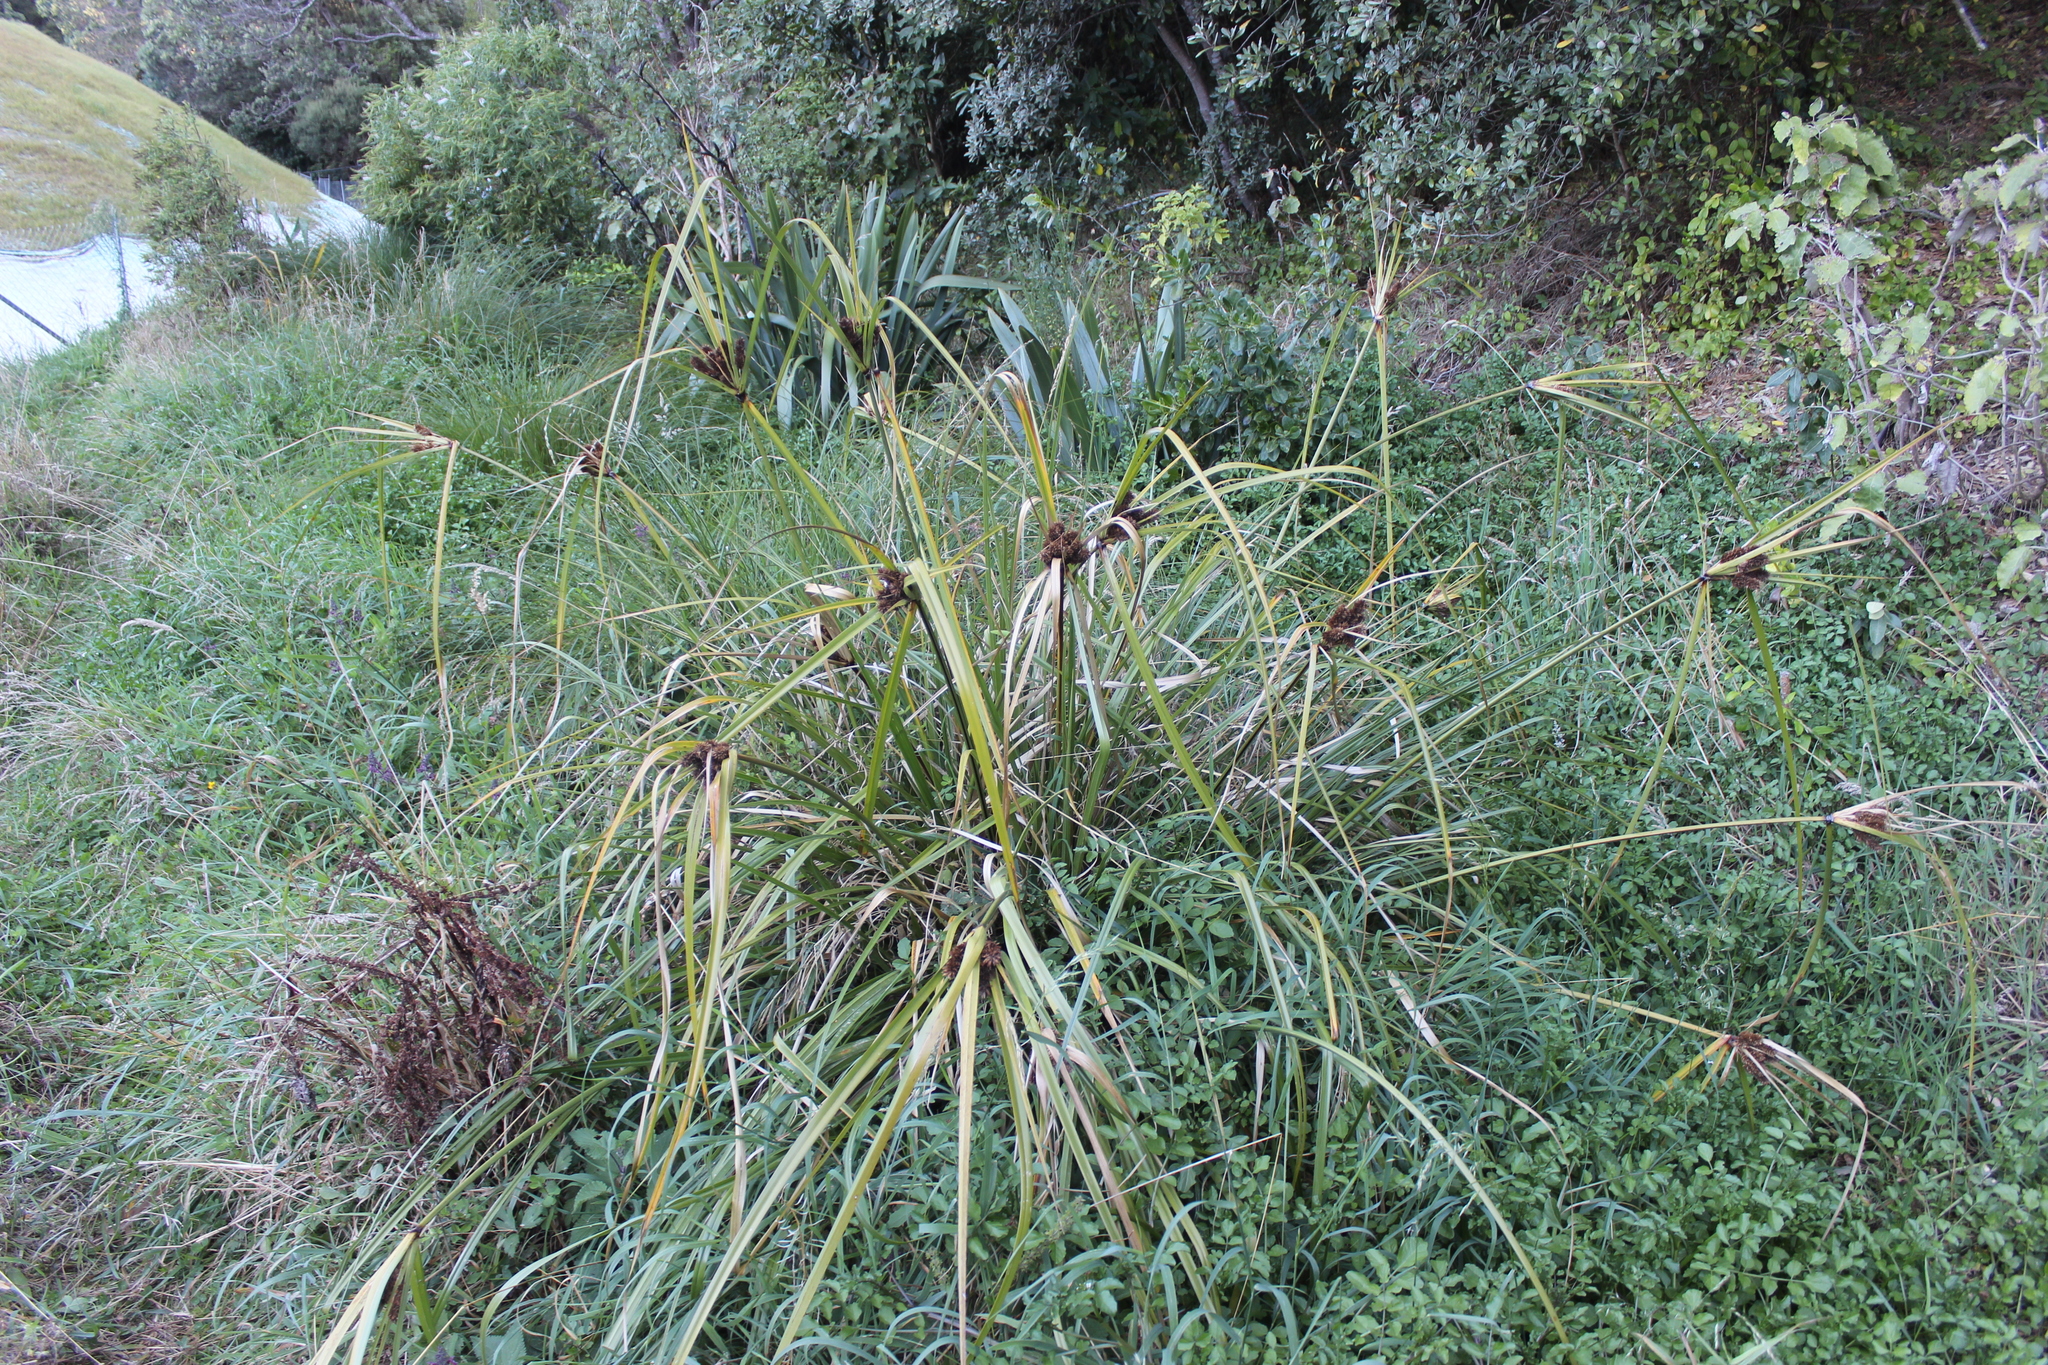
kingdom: Plantae
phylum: Tracheophyta
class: Liliopsida
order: Poales
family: Cyperaceae
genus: Cyperus
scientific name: Cyperus ustulatus
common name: Giant umbrella-sedge
